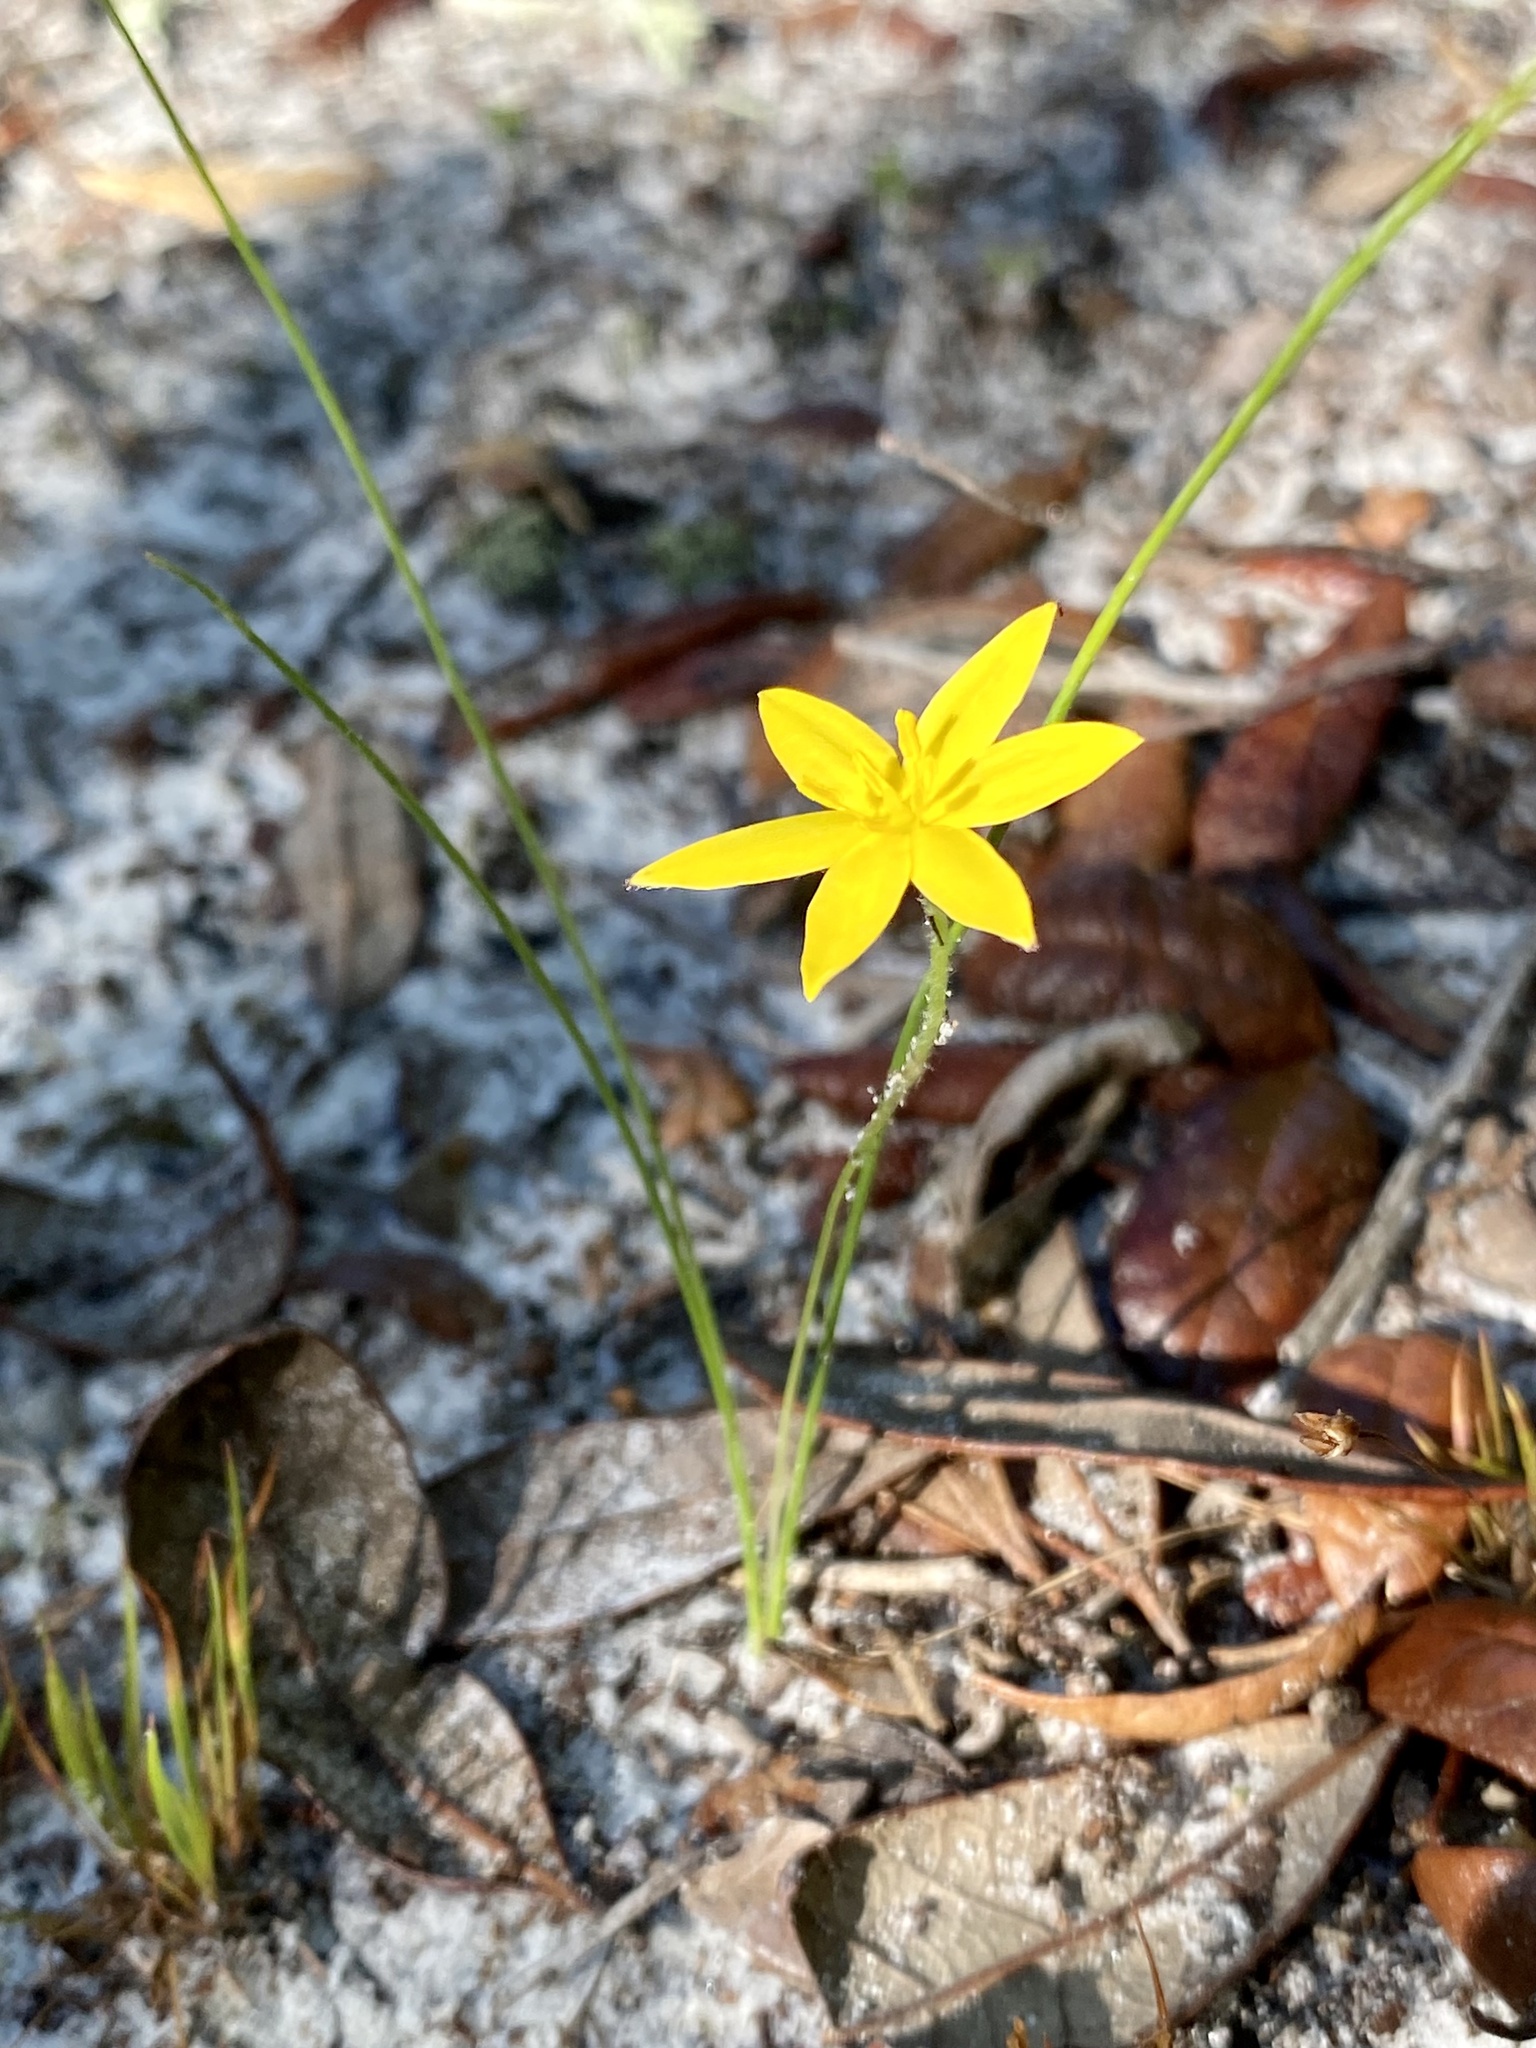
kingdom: Plantae
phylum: Tracheophyta
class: Liliopsida
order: Asparagales
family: Hypoxidaceae
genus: Hypoxis
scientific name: Hypoxis juncea
